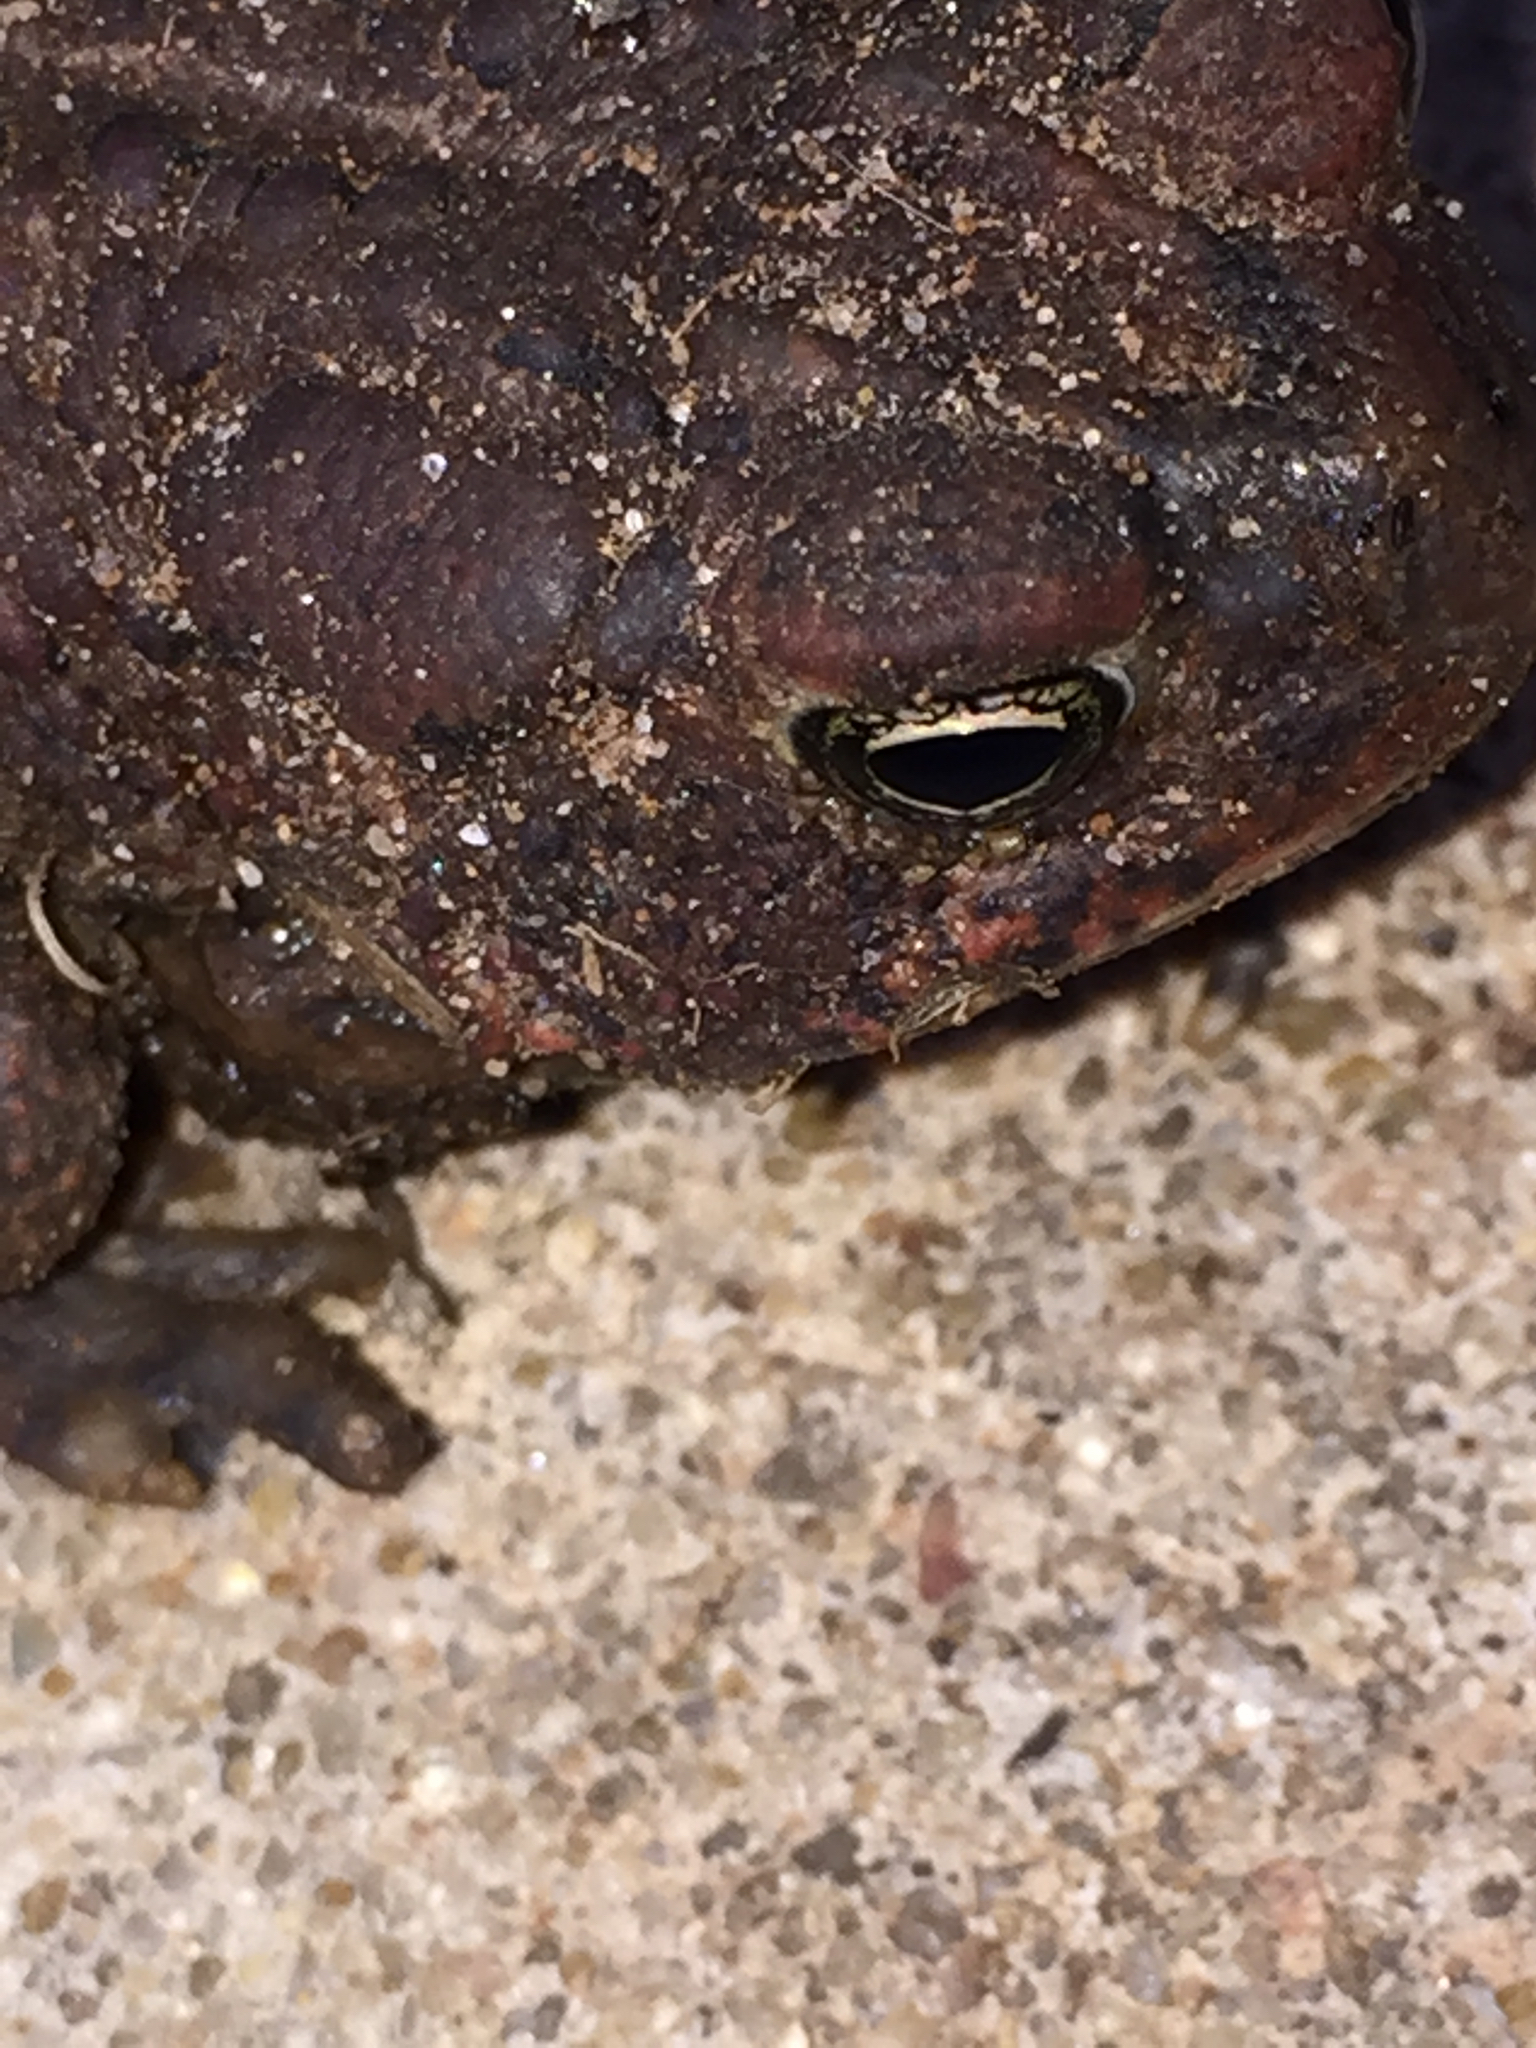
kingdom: Animalia
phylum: Chordata
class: Amphibia
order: Anura
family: Bufonidae
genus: Anaxyrus
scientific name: Anaxyrus americanus
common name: American toad
